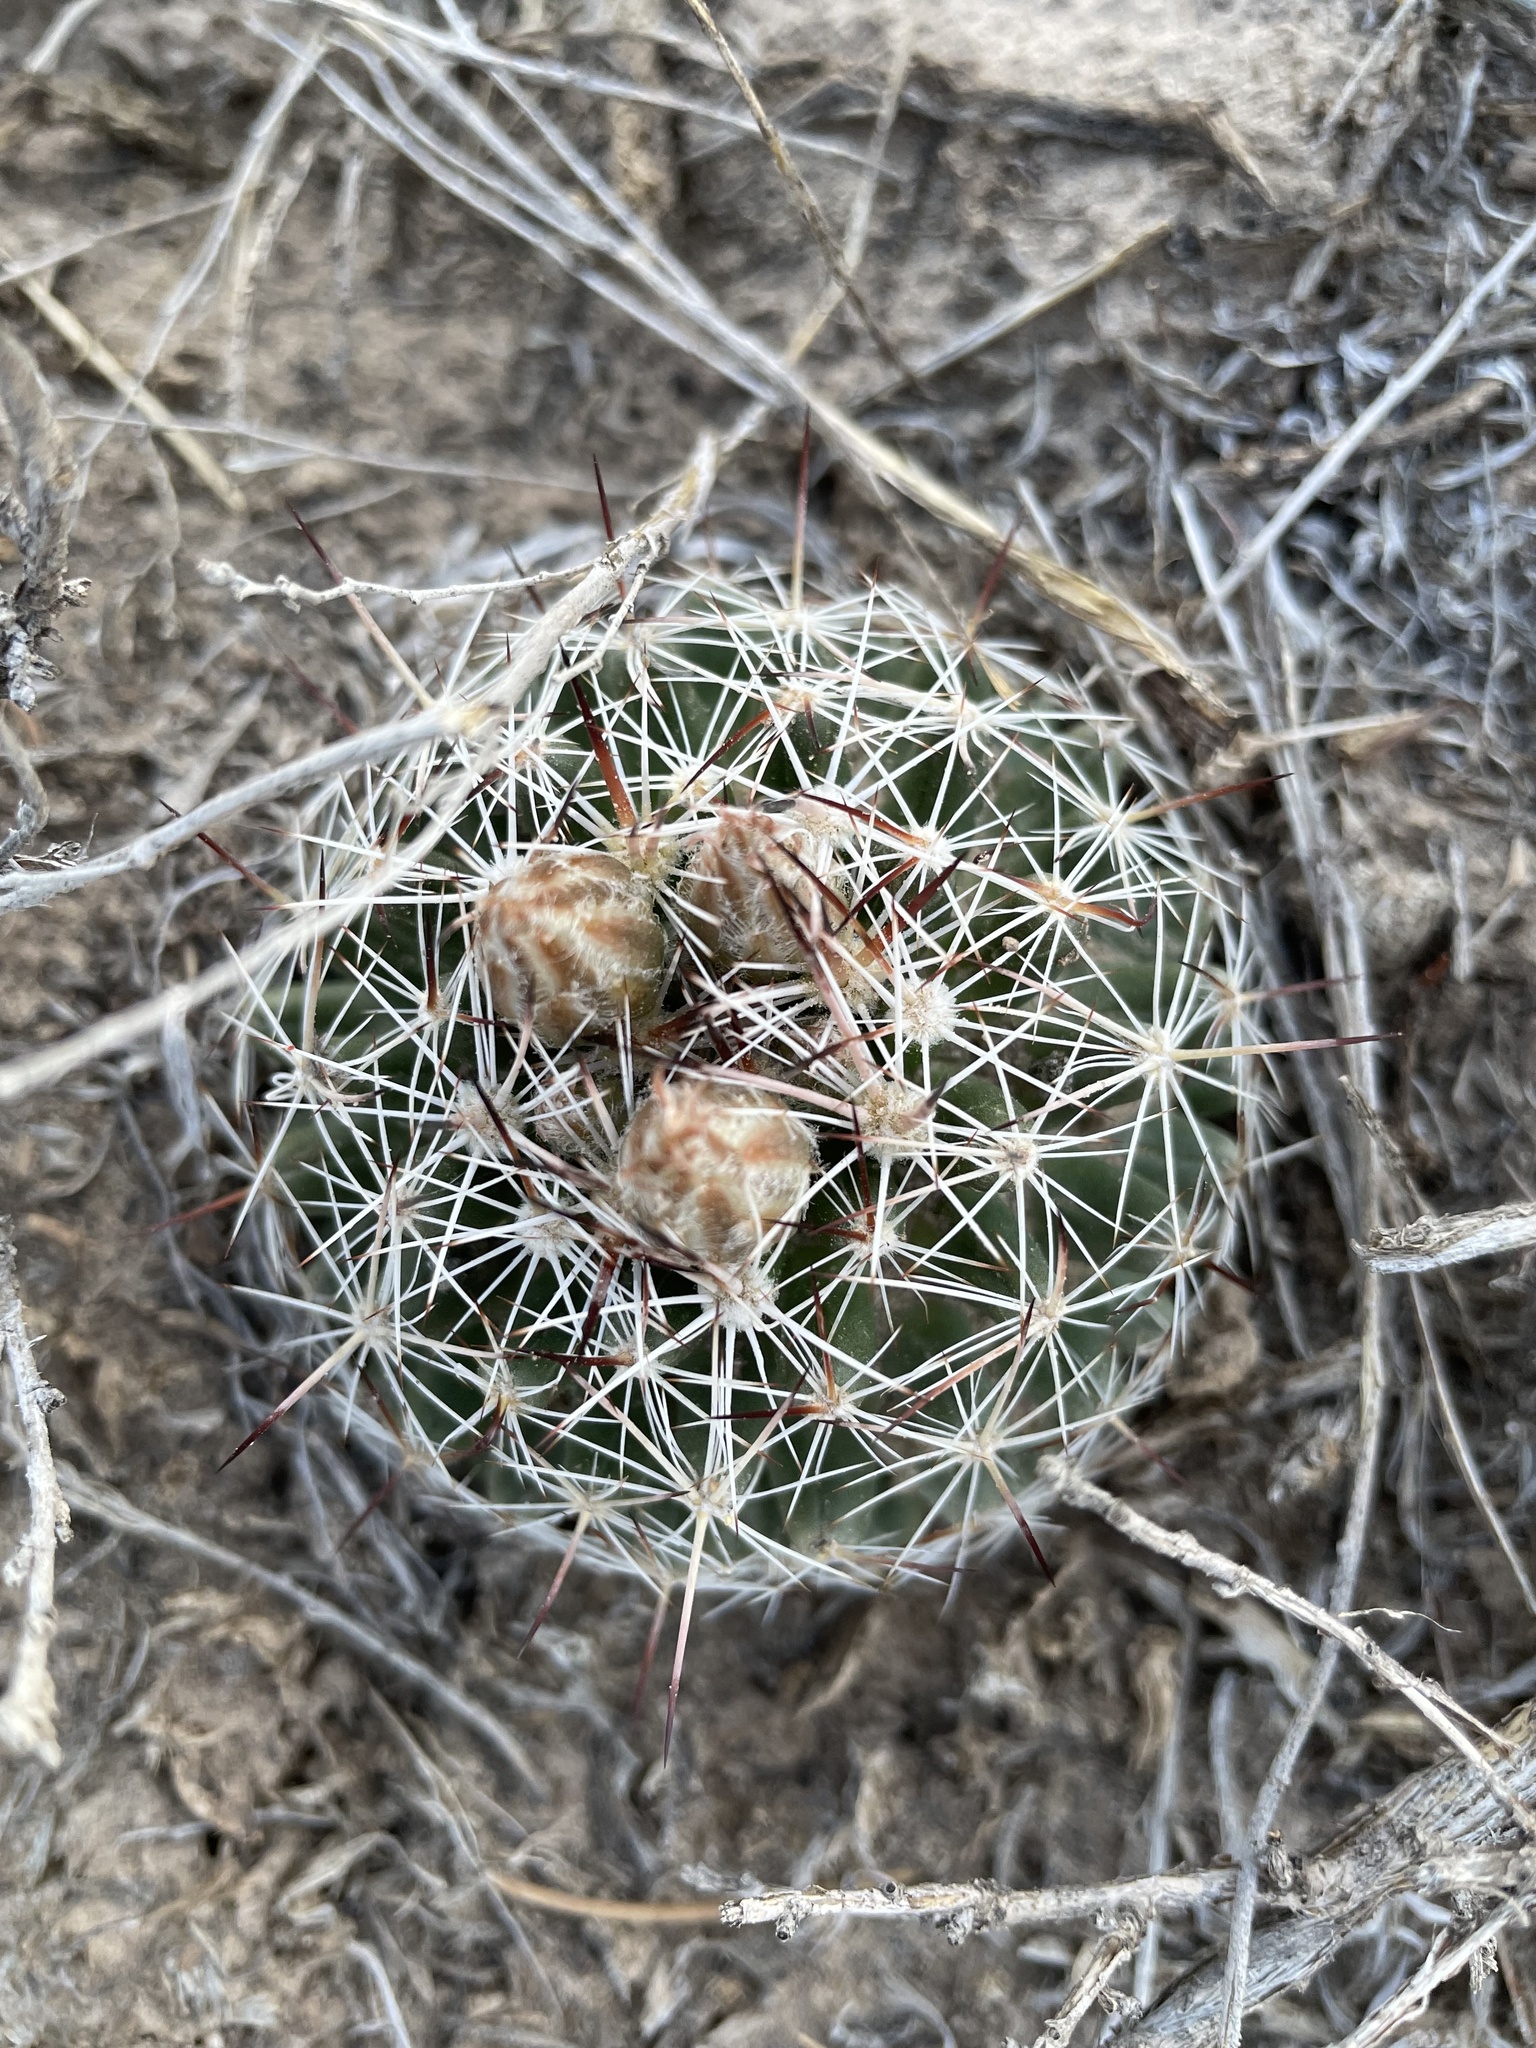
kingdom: Plantae
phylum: Tracheophyta
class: Magnoliopsida
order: Caryophyllales
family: Cactaceae
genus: Pelecyphora
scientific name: Pelecyphora vivipara
